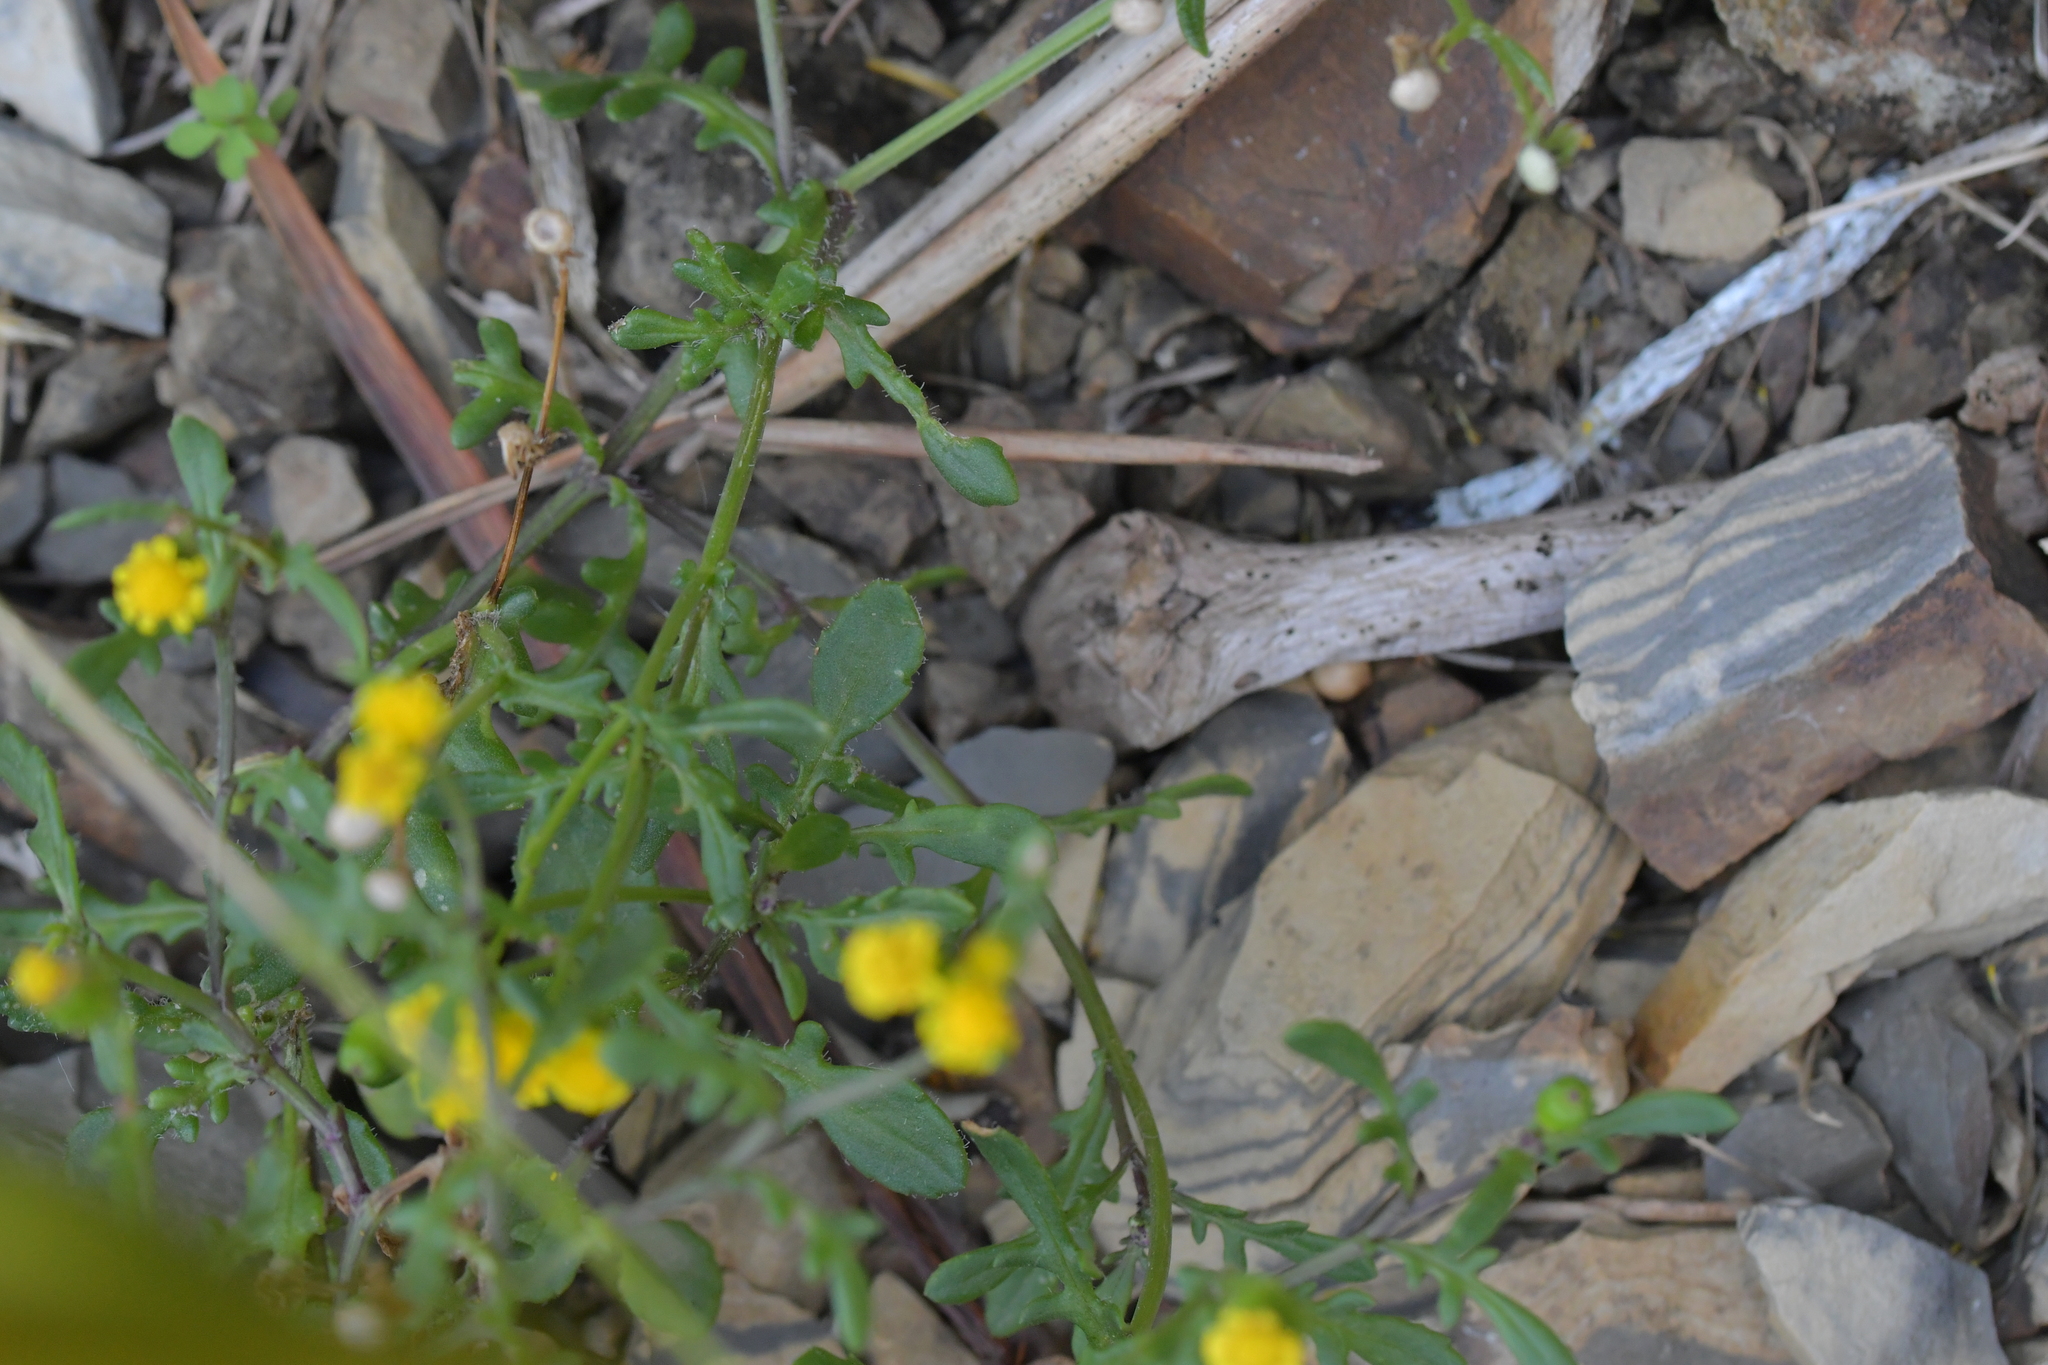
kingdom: Plantae
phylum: Tracheophyta
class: Magnoliopsida
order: Asterales
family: Asteraceae
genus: Senecio
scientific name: Senecio lautus
